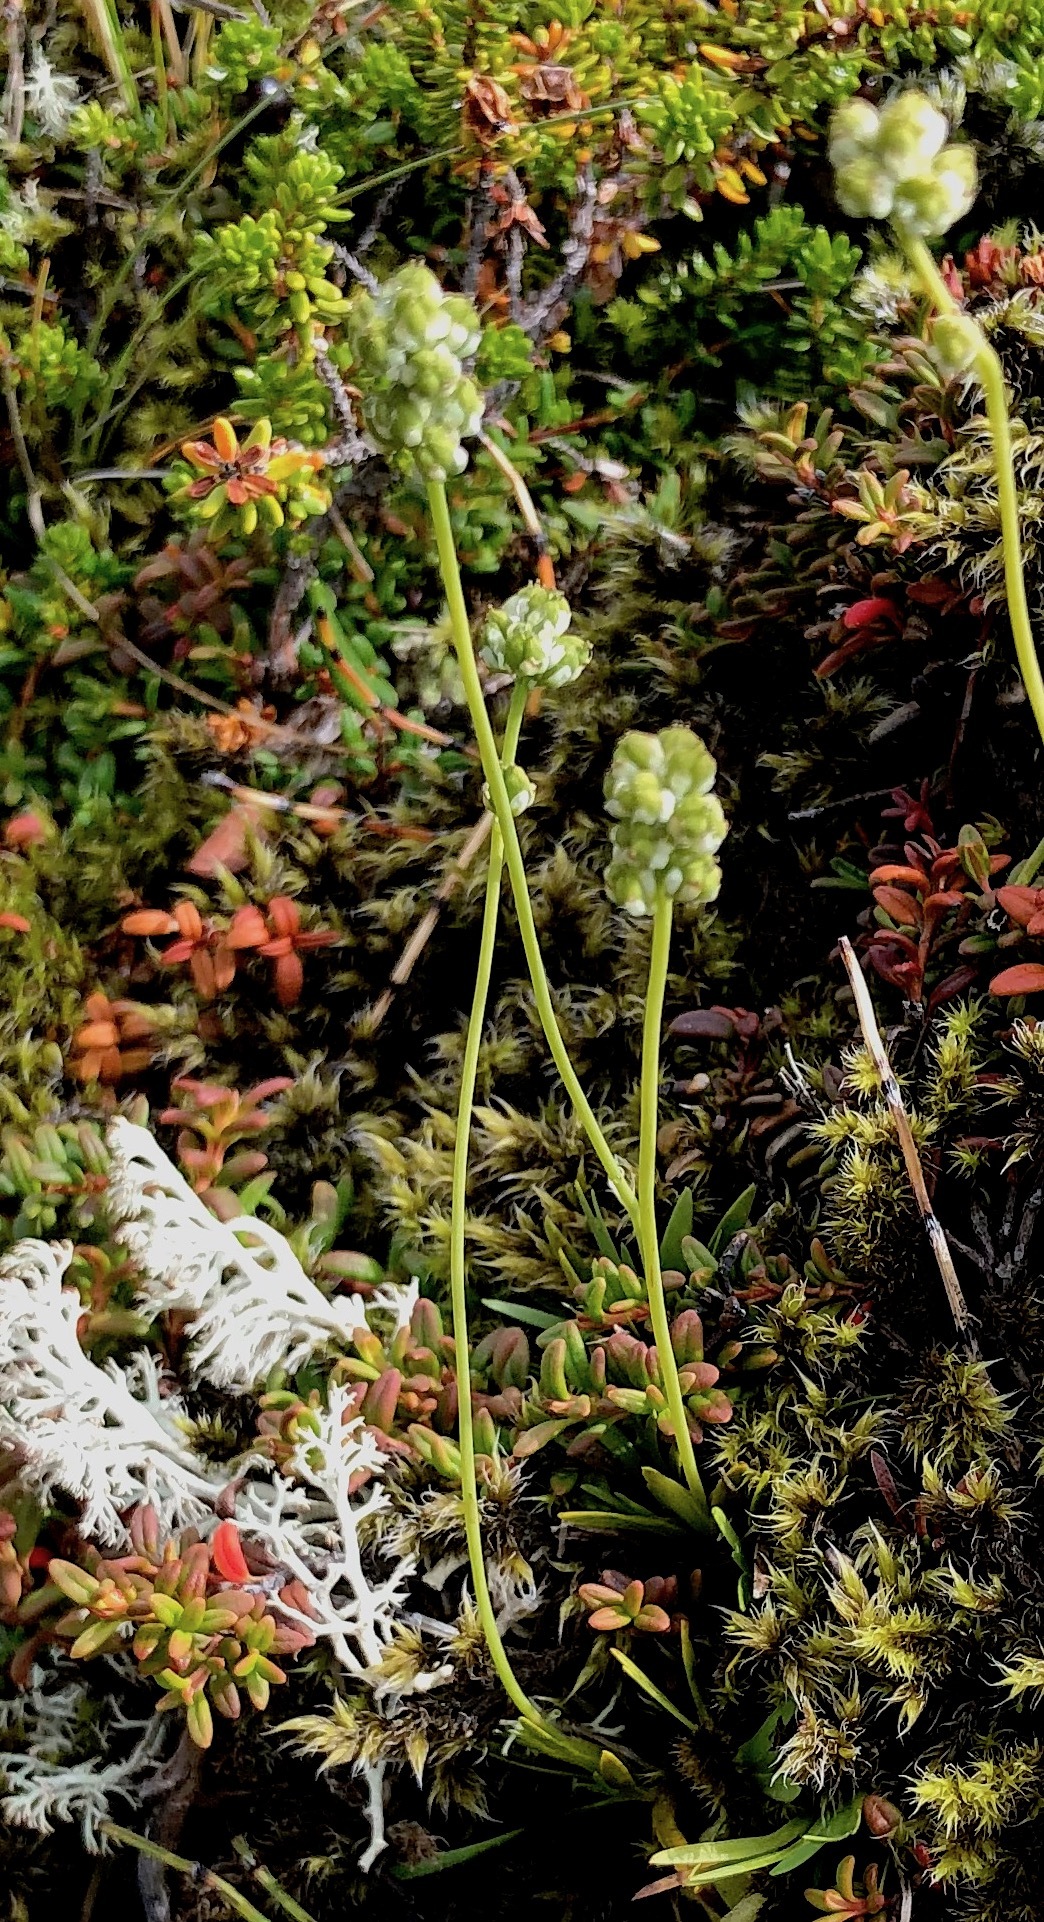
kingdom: Plantae
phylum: Tracheophyta
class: Liliopsida
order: Alismatales
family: Tofieldiaceae
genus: Tofieldia
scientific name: Tofieldia pusilla
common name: Scottish false asphodel
